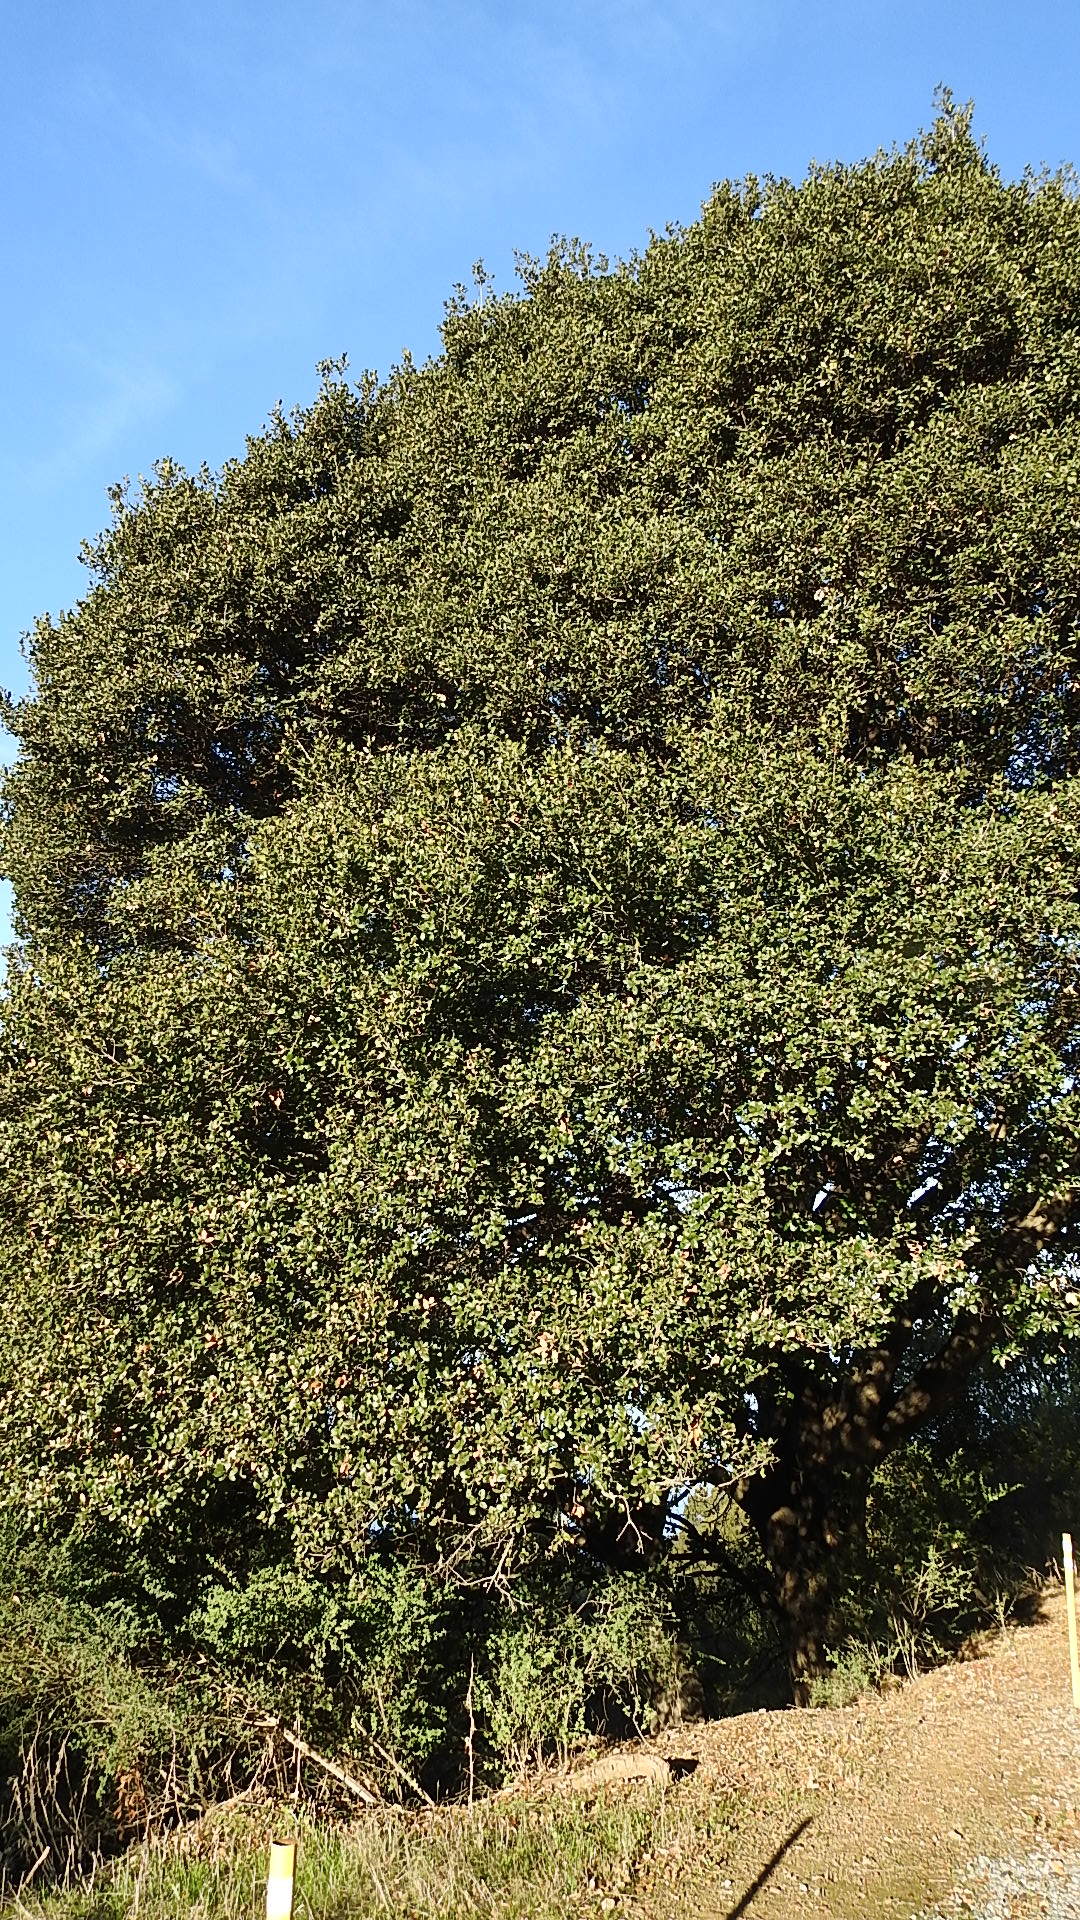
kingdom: Plantae
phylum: Tracheophyta
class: Magnoliopsida
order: Fagales
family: Fagaceae
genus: Quercus
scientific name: Quercus agrifolia
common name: California live oak
